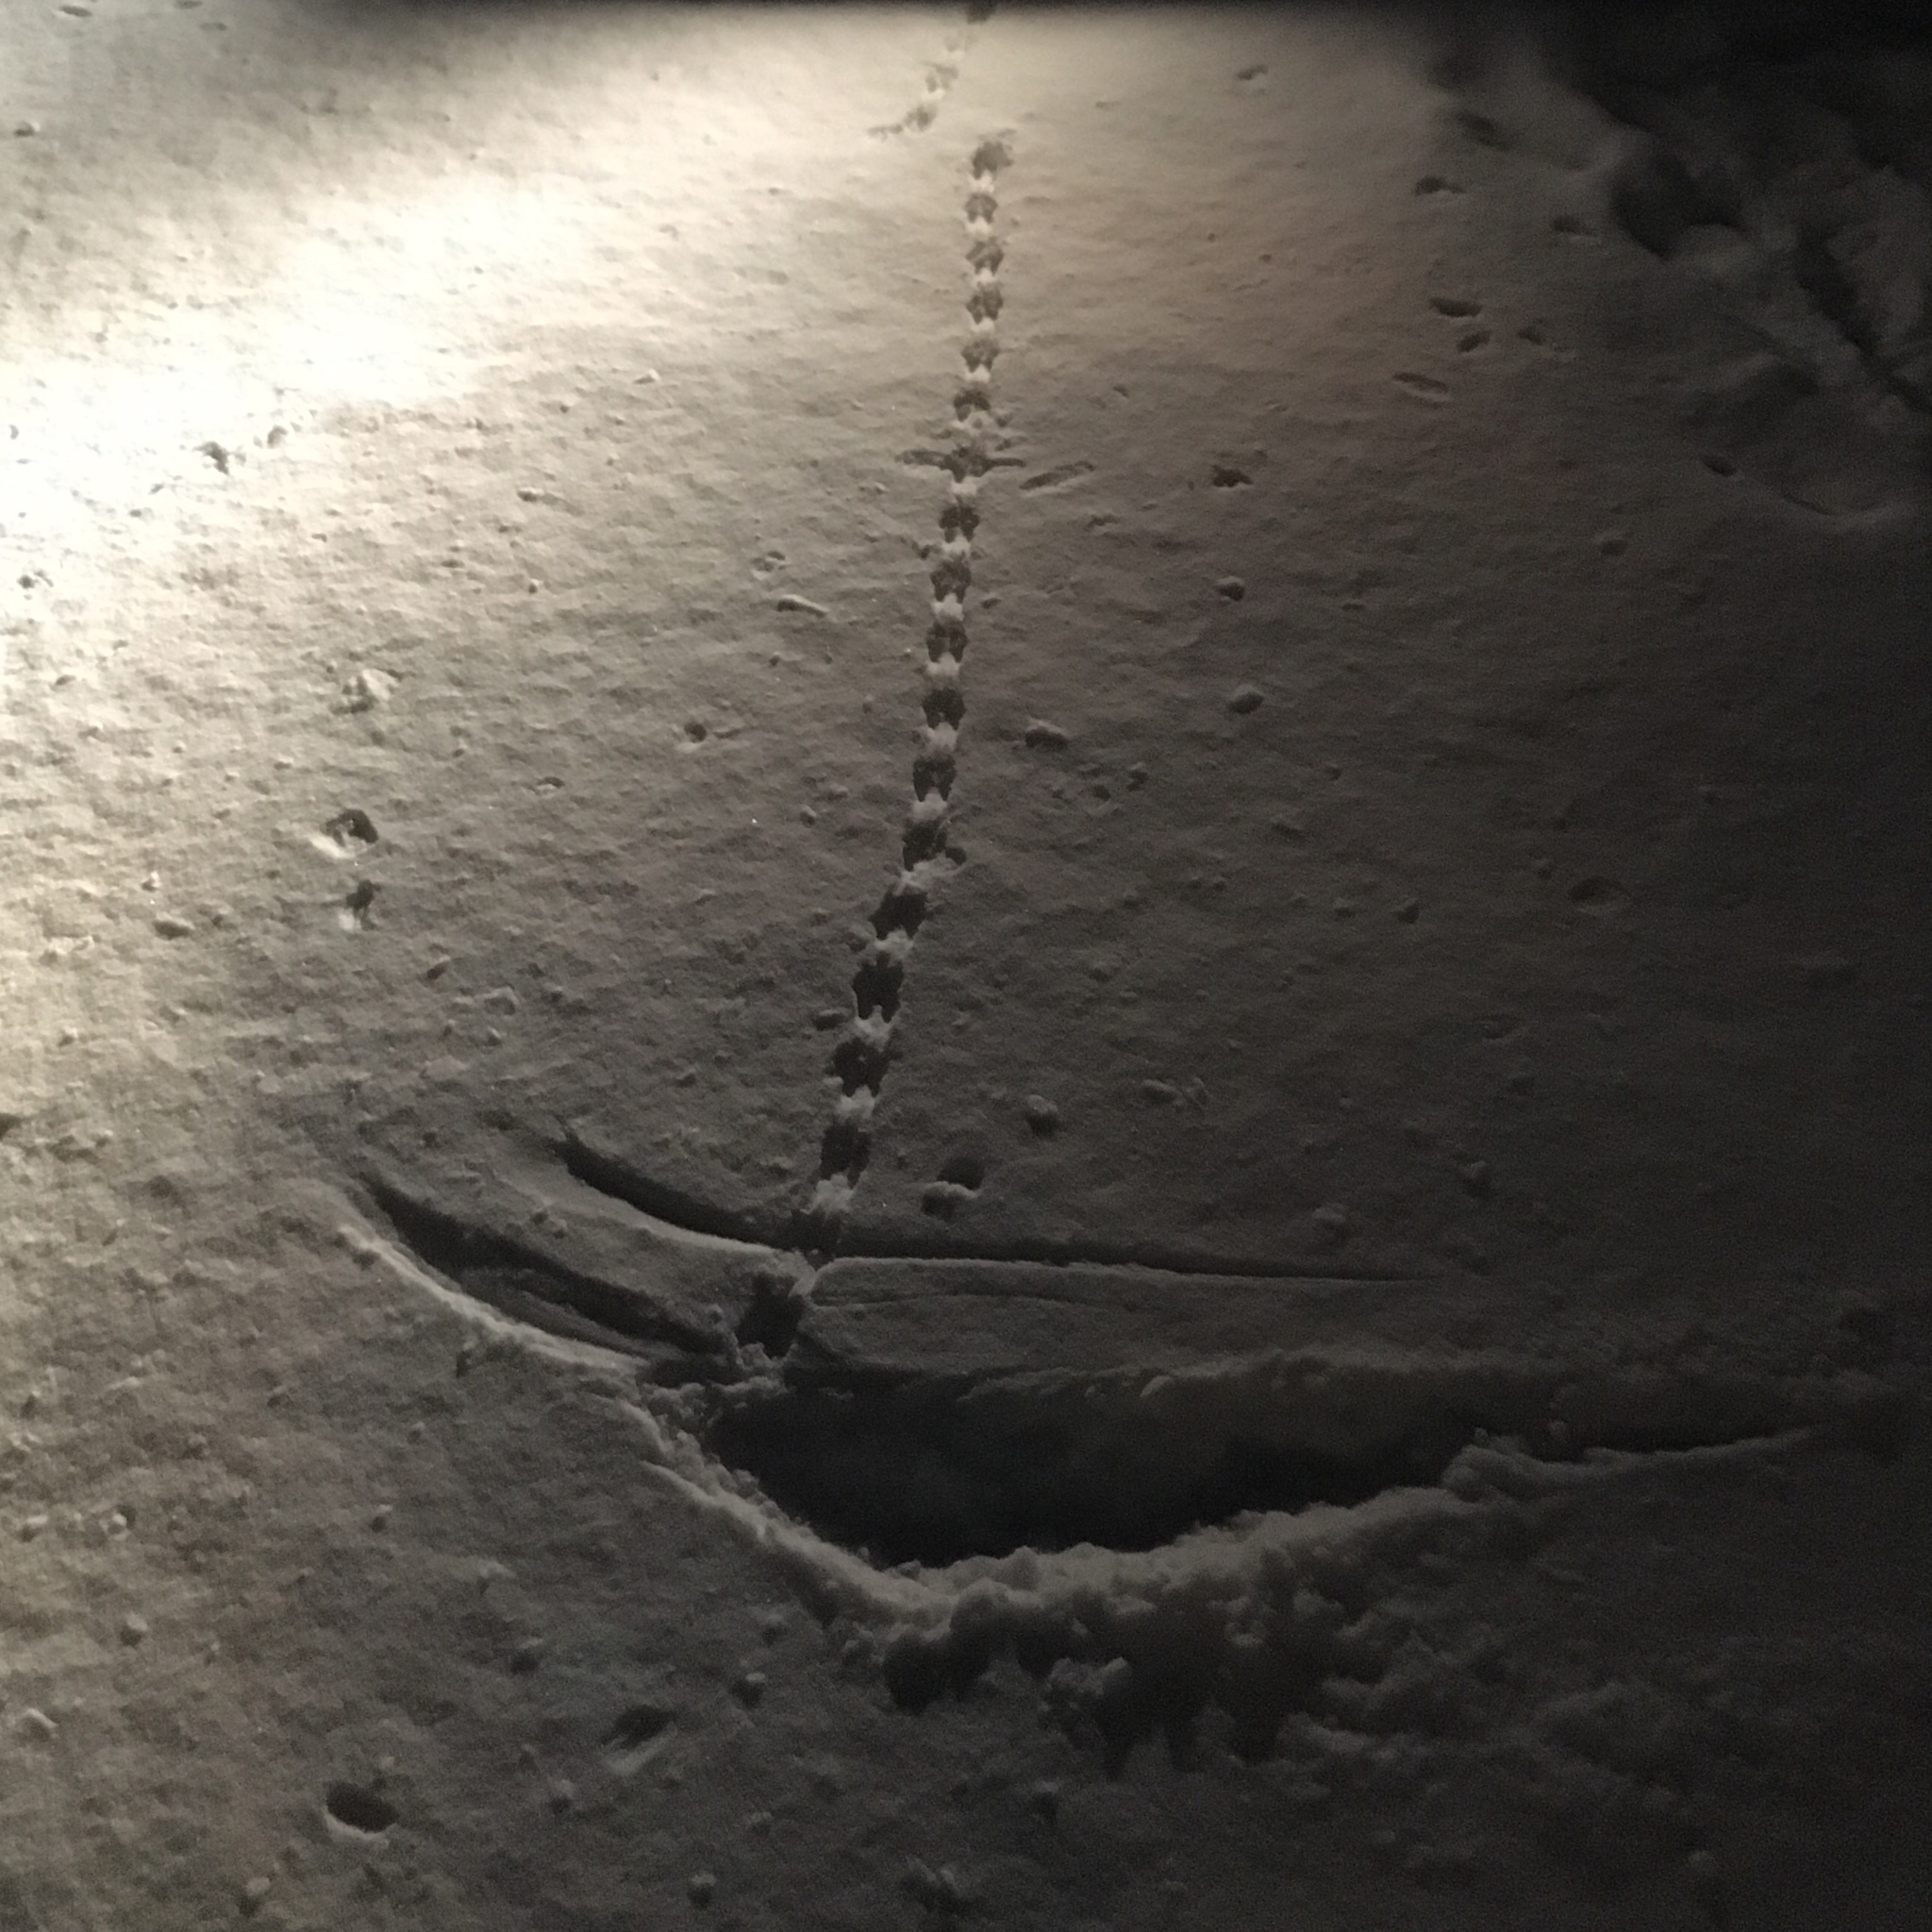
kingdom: Animalia
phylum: Chordata
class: Mammalia
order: Rodentia
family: Cricetidae
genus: Peromyscus
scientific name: Peromyscus
